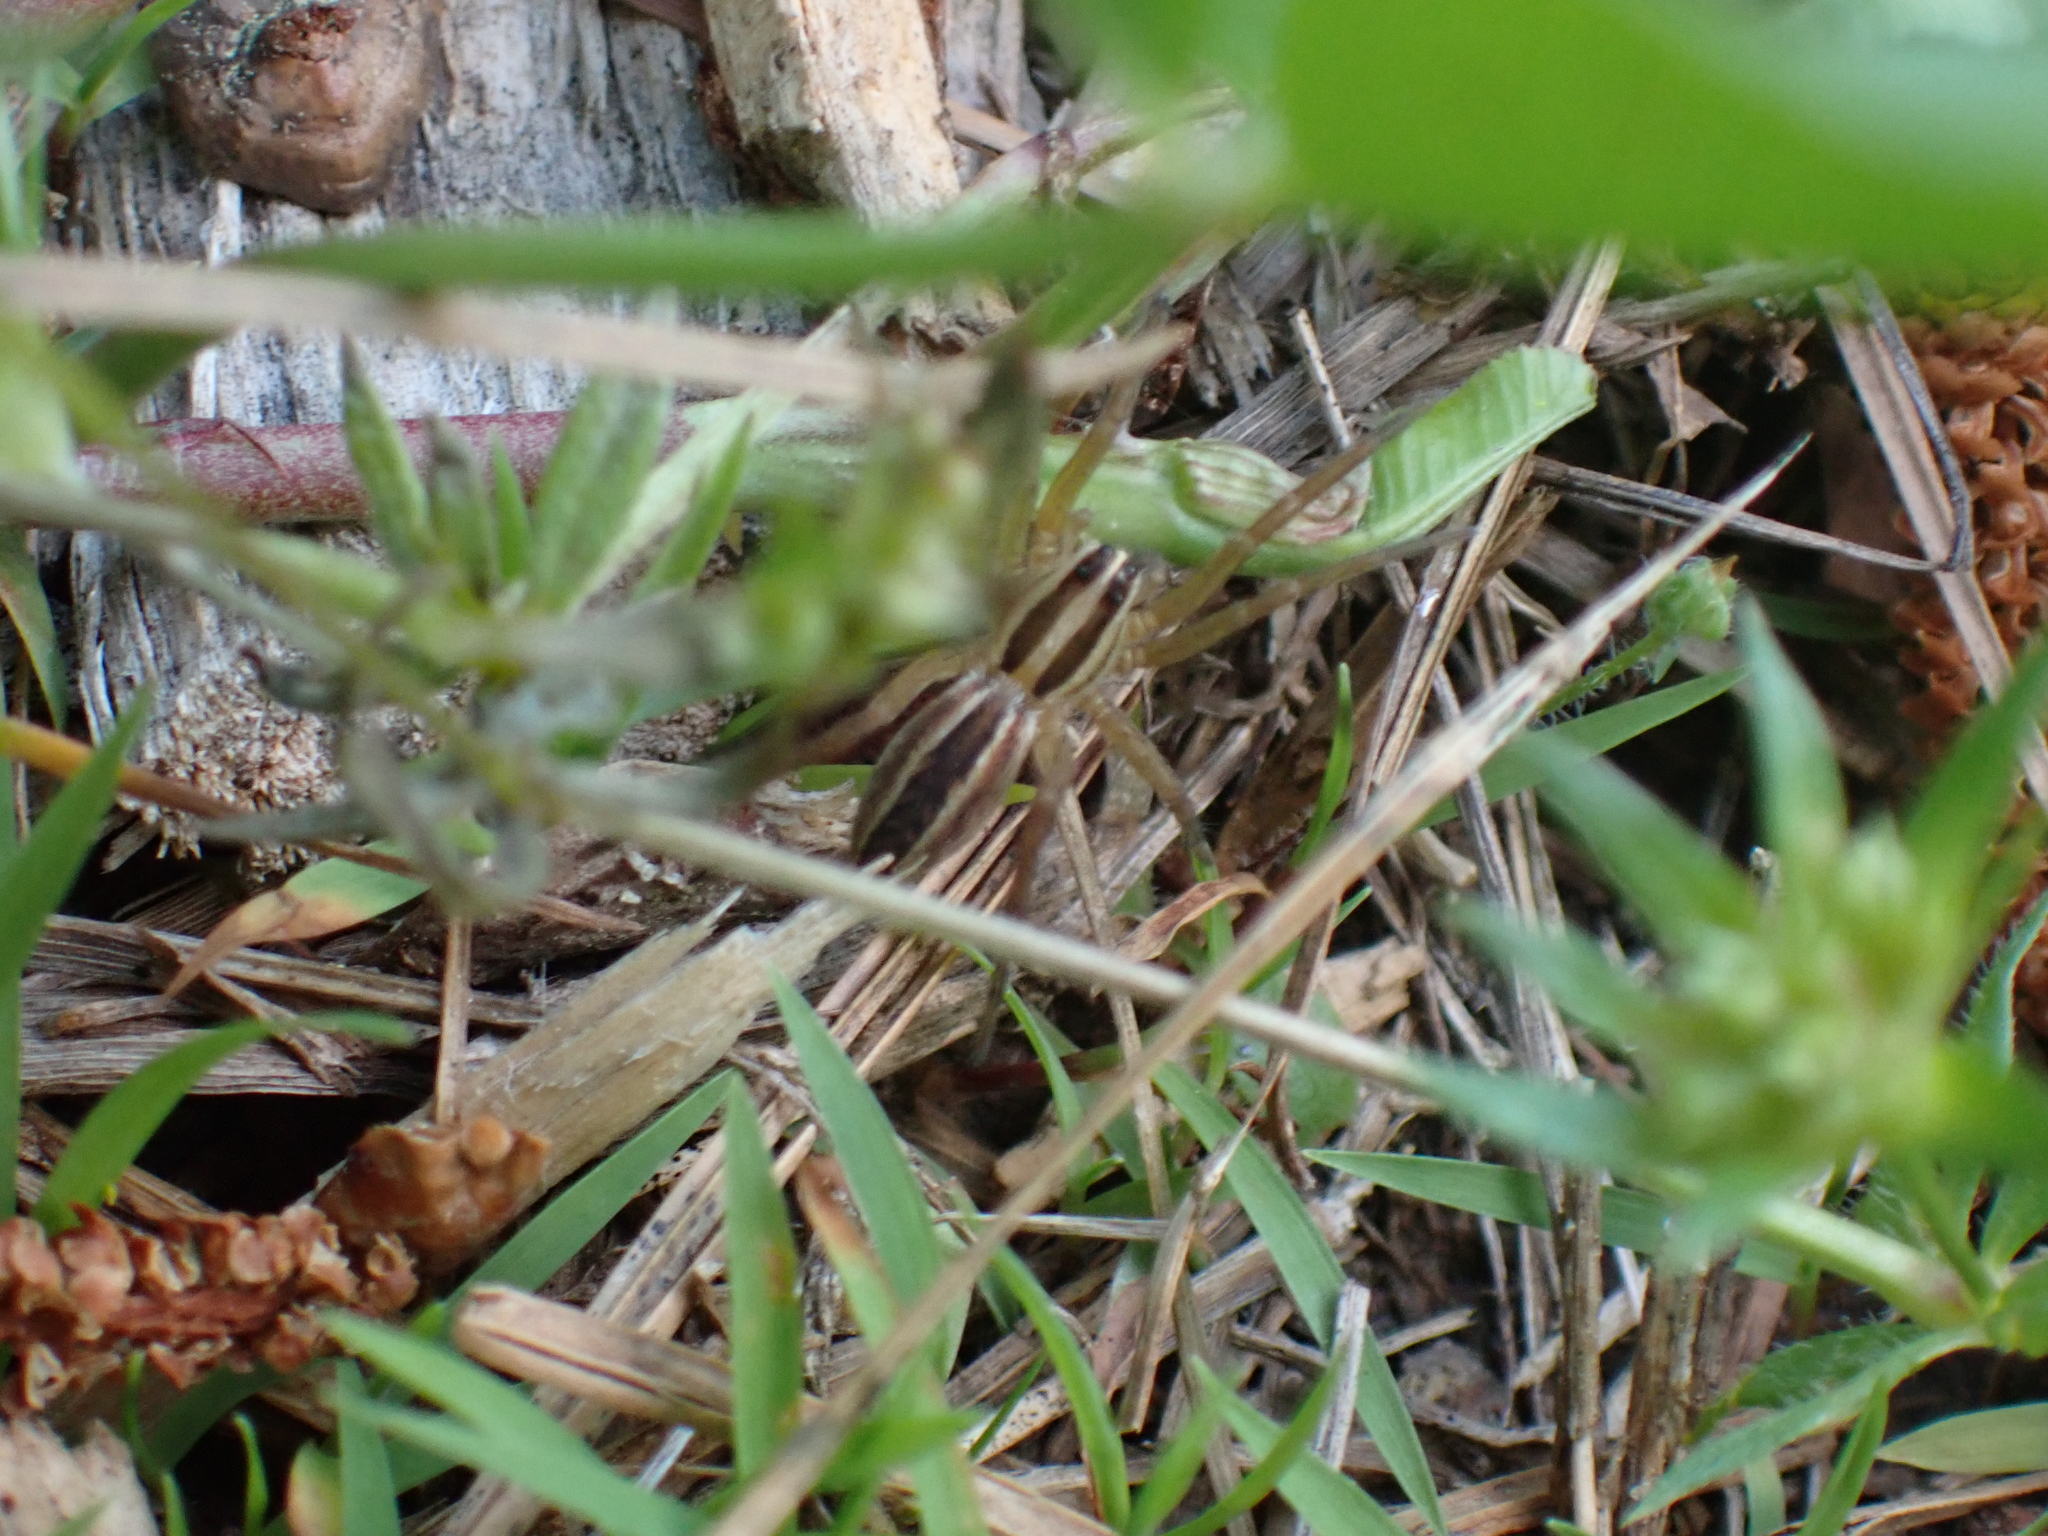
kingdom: Animalia
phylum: Arthropoda
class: Arachnida
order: Araneae
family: Lycosidae
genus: Rabidosa
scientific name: Rabidosa rabida
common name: Rabid wolf spider
